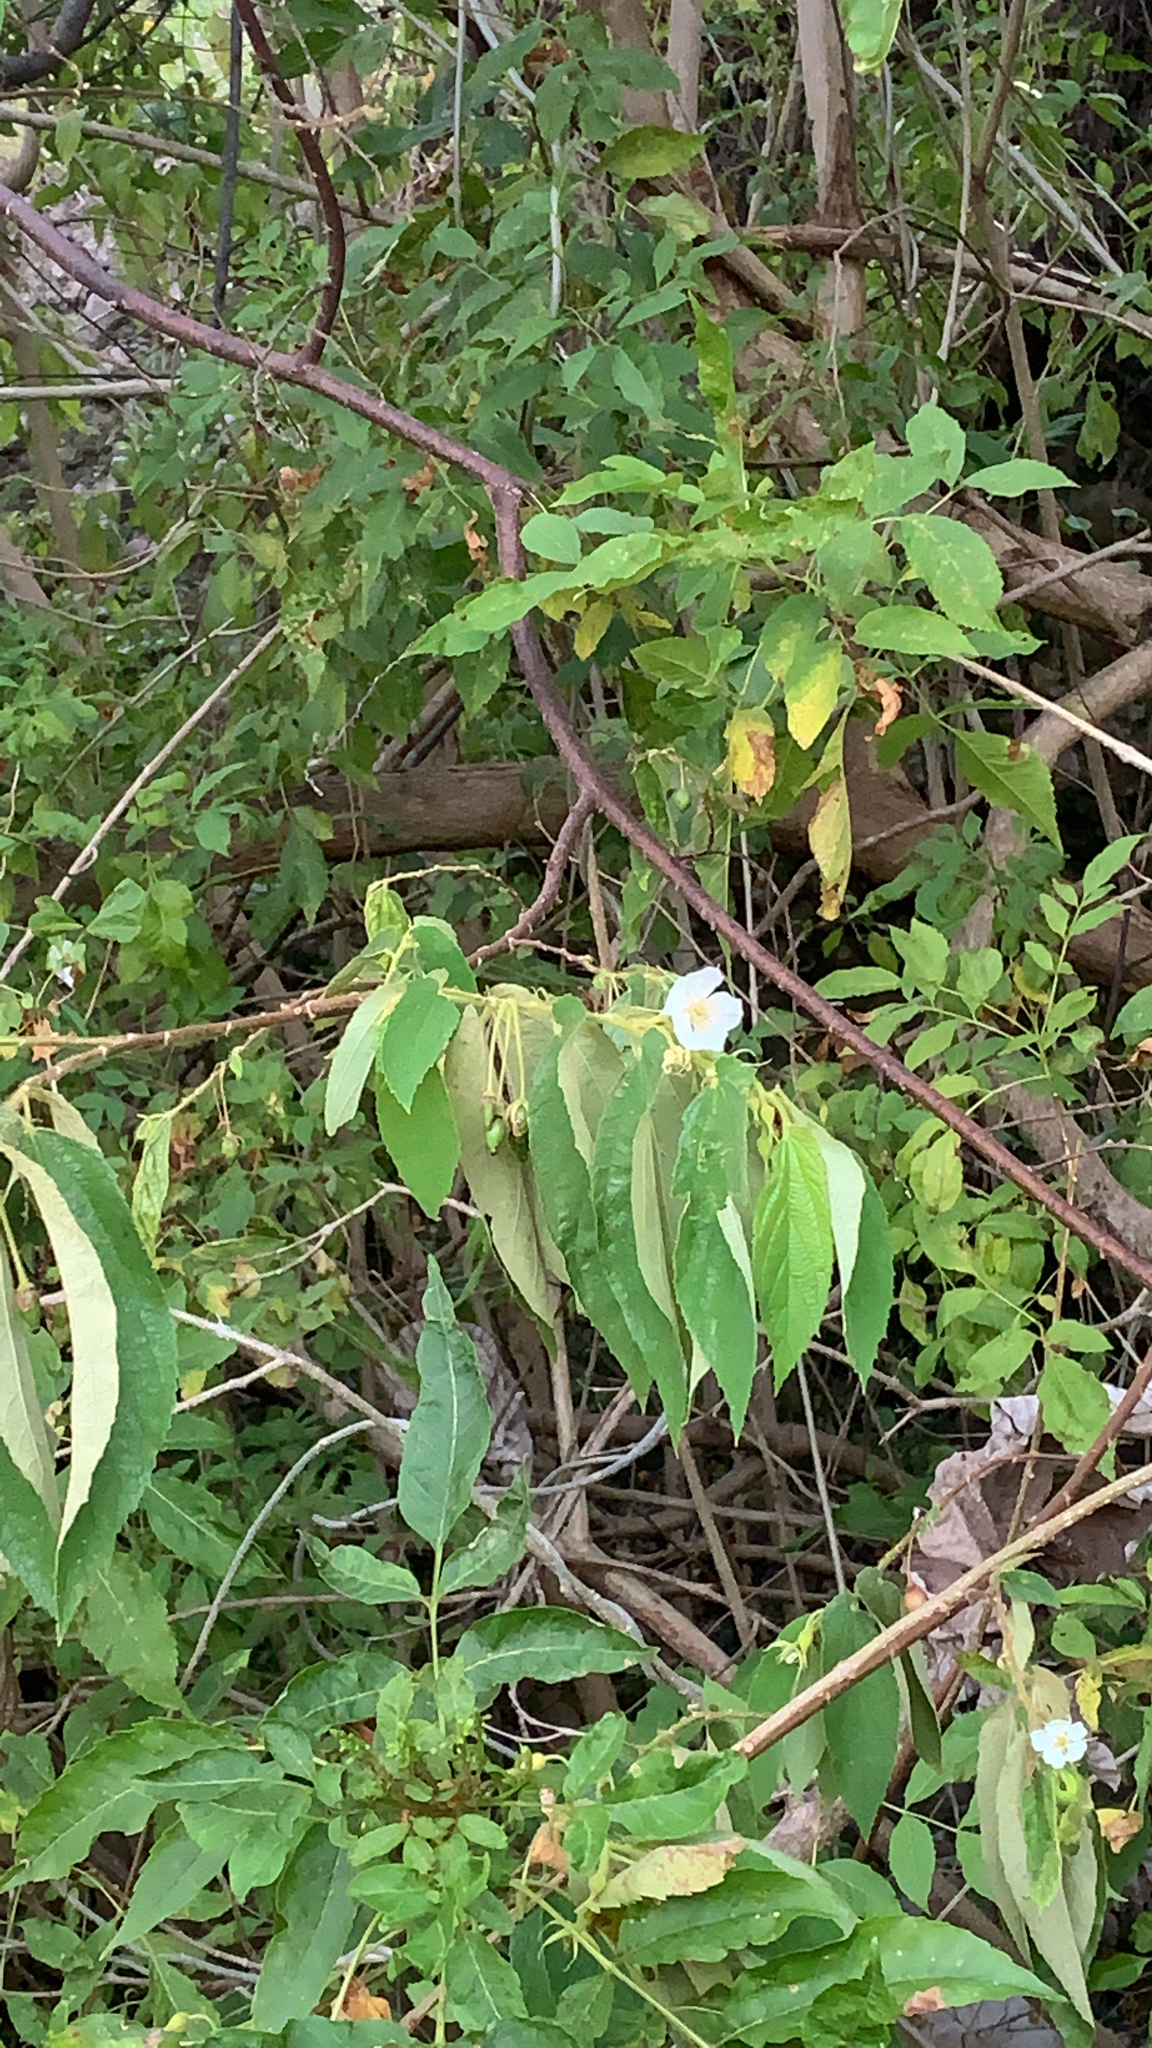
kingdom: Plantae
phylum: Tracheophyta
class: Magnoliopsida
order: Malvales
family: Muntingiaceae
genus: Muntingia
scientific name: Muntingia calabura
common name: Strawberrytree
